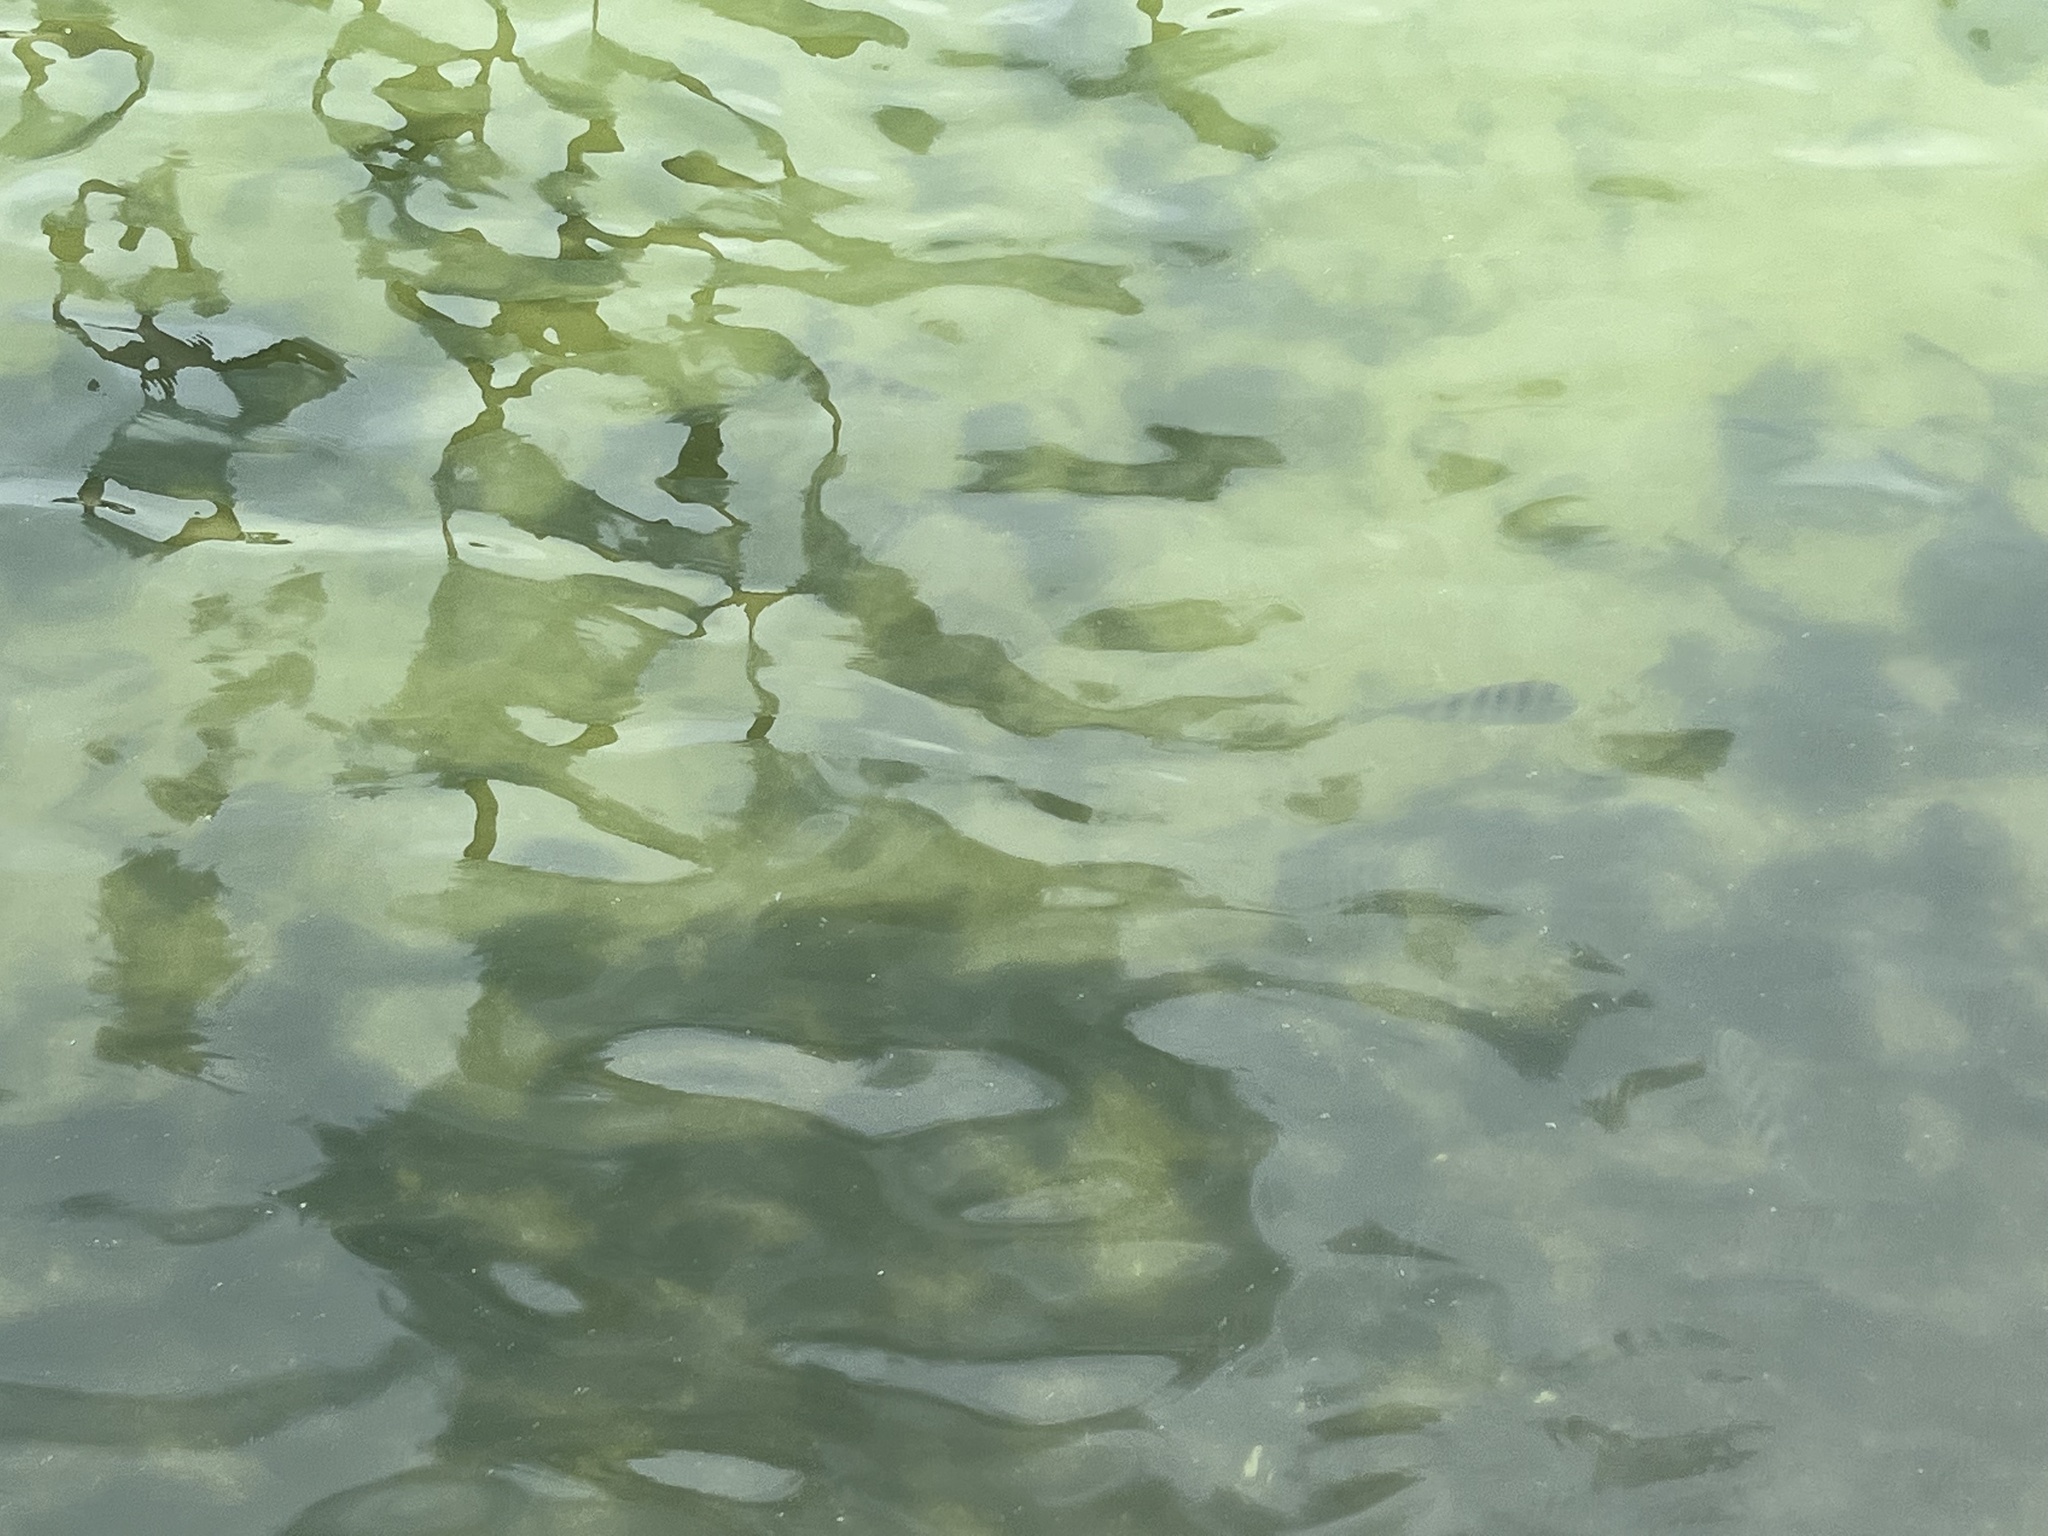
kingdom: Animalia
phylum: Chordata
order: Perciformes
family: Sparidae
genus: Archosargus
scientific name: Archosargus probatocephalus
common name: Sheepshead
